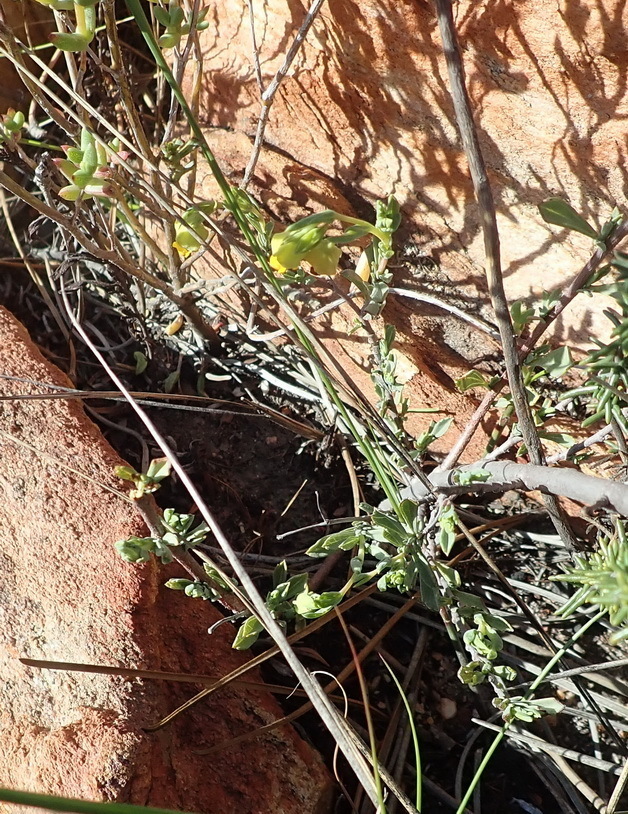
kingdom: Plantae
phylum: Tracheophyta
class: Magnoliopsida
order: Malvales
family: Malvaceae
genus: Hermannia
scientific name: Hermannia
